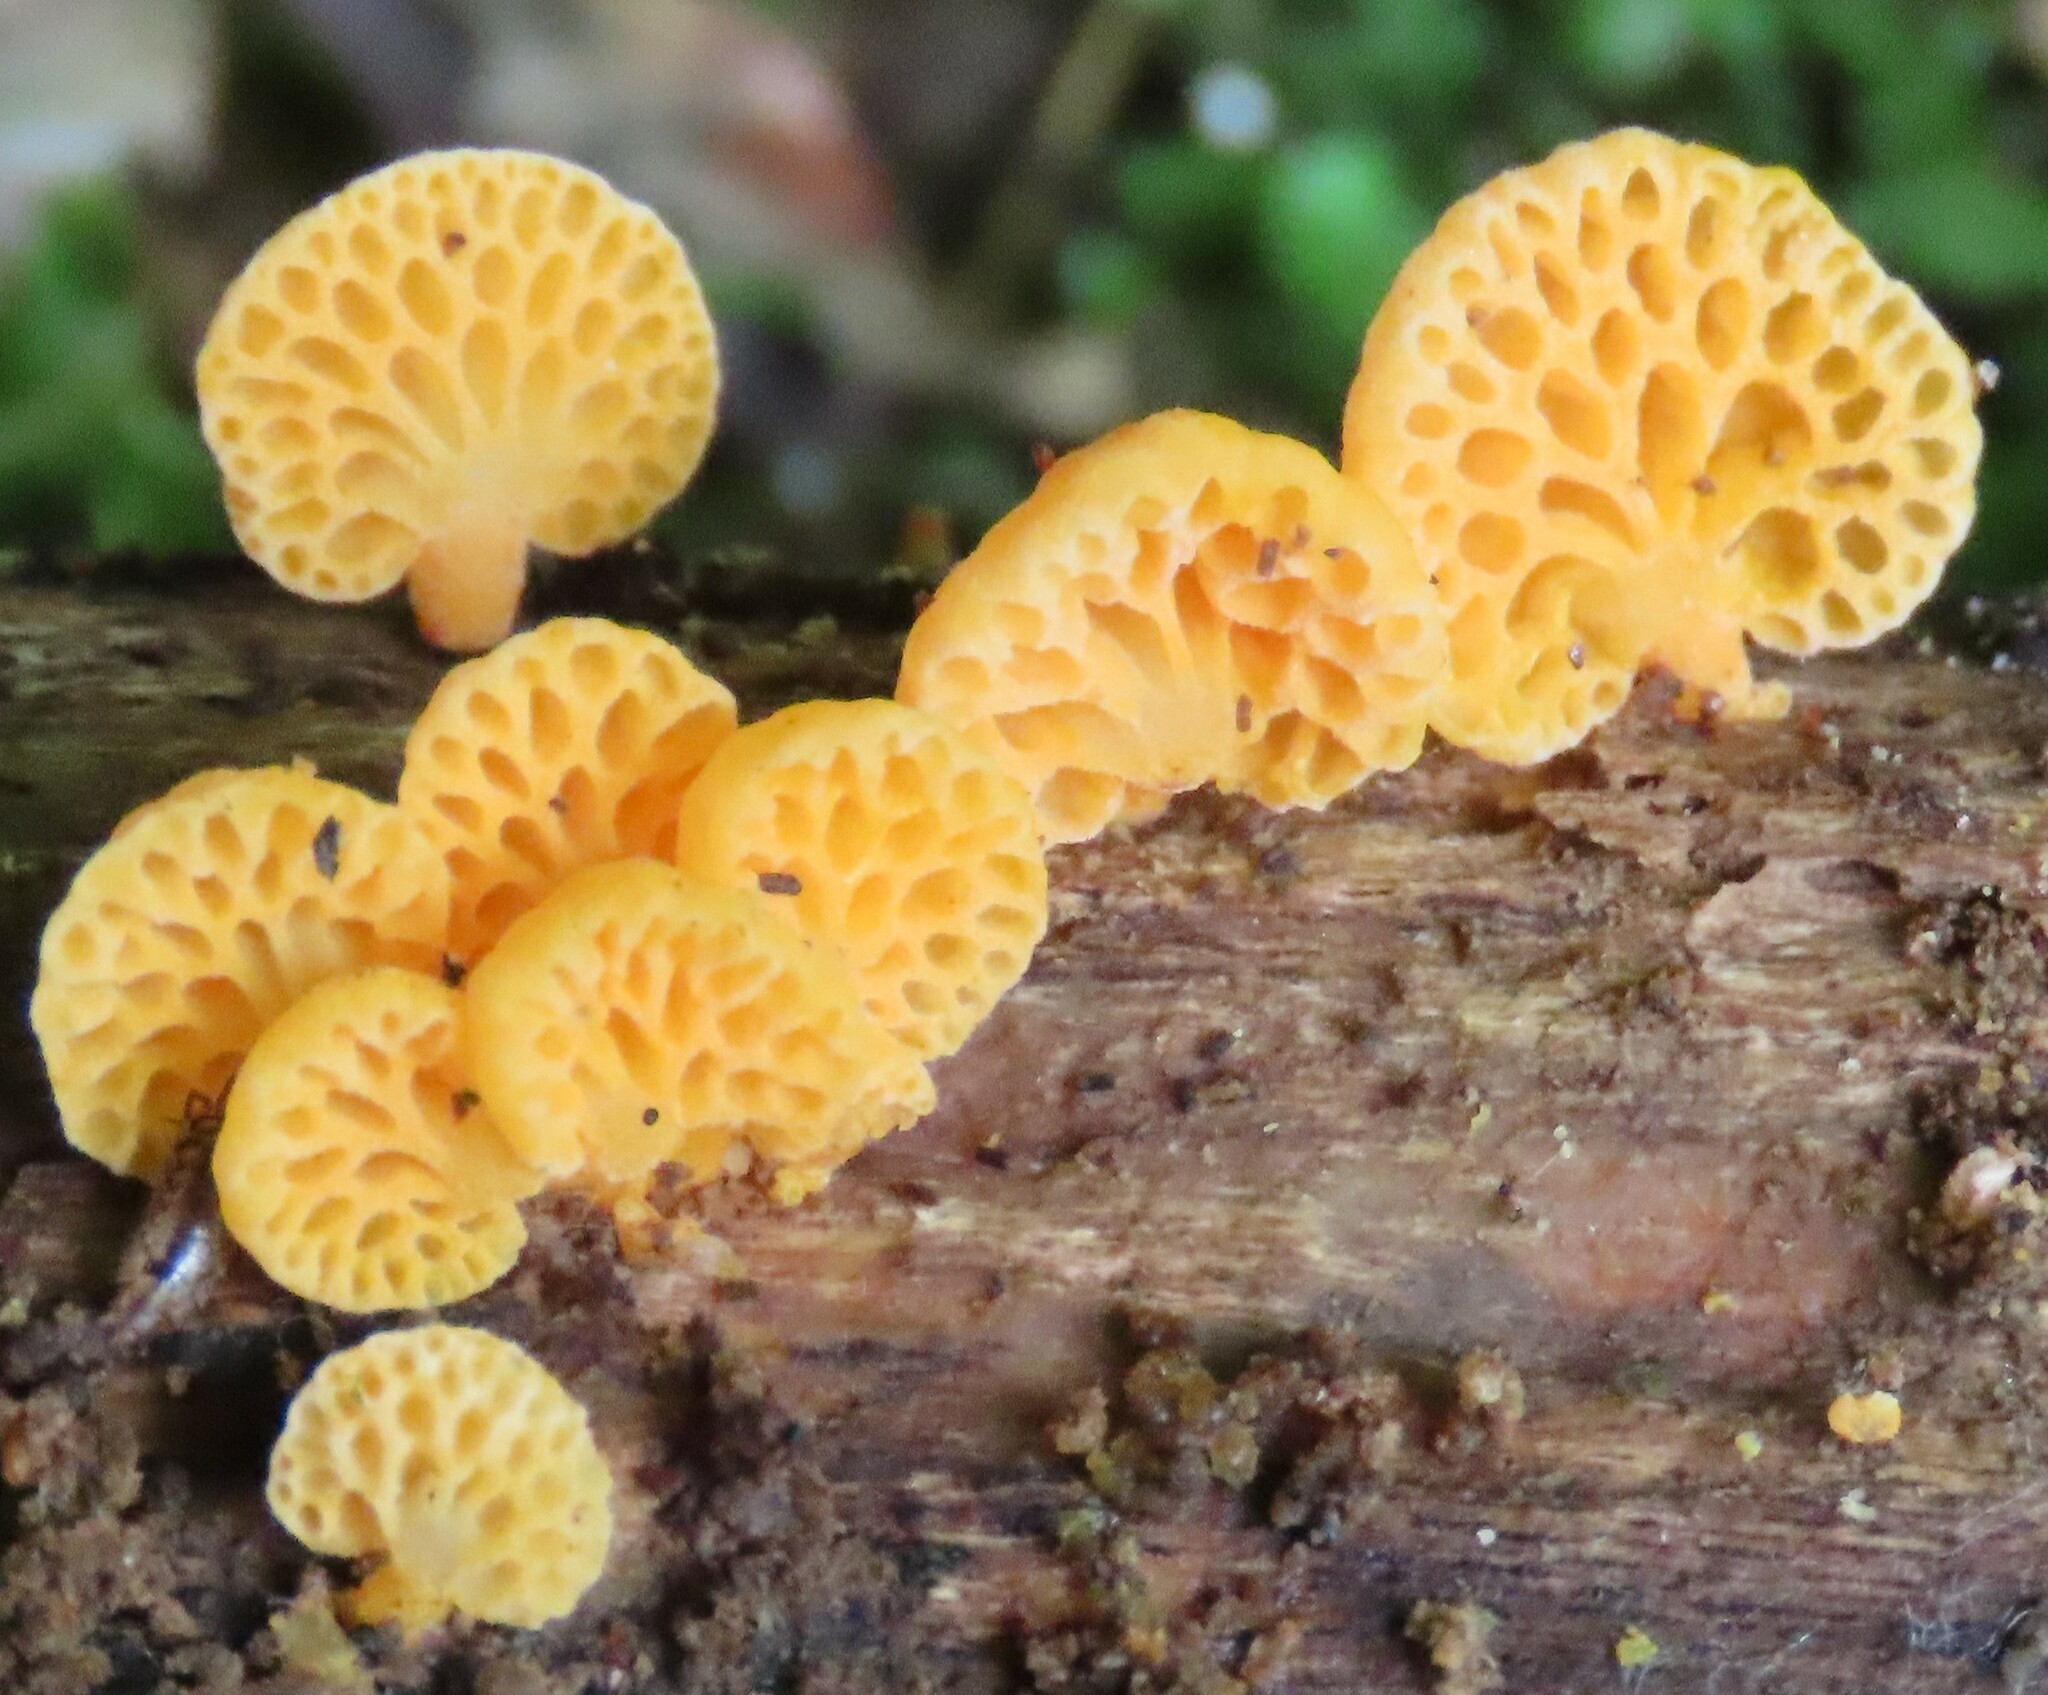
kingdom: Fungi
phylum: Basidiomycota
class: Agaricomycetes
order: Agaricales
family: Mycenaceae
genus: Favolaschia
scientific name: Favolaschia claudopus
